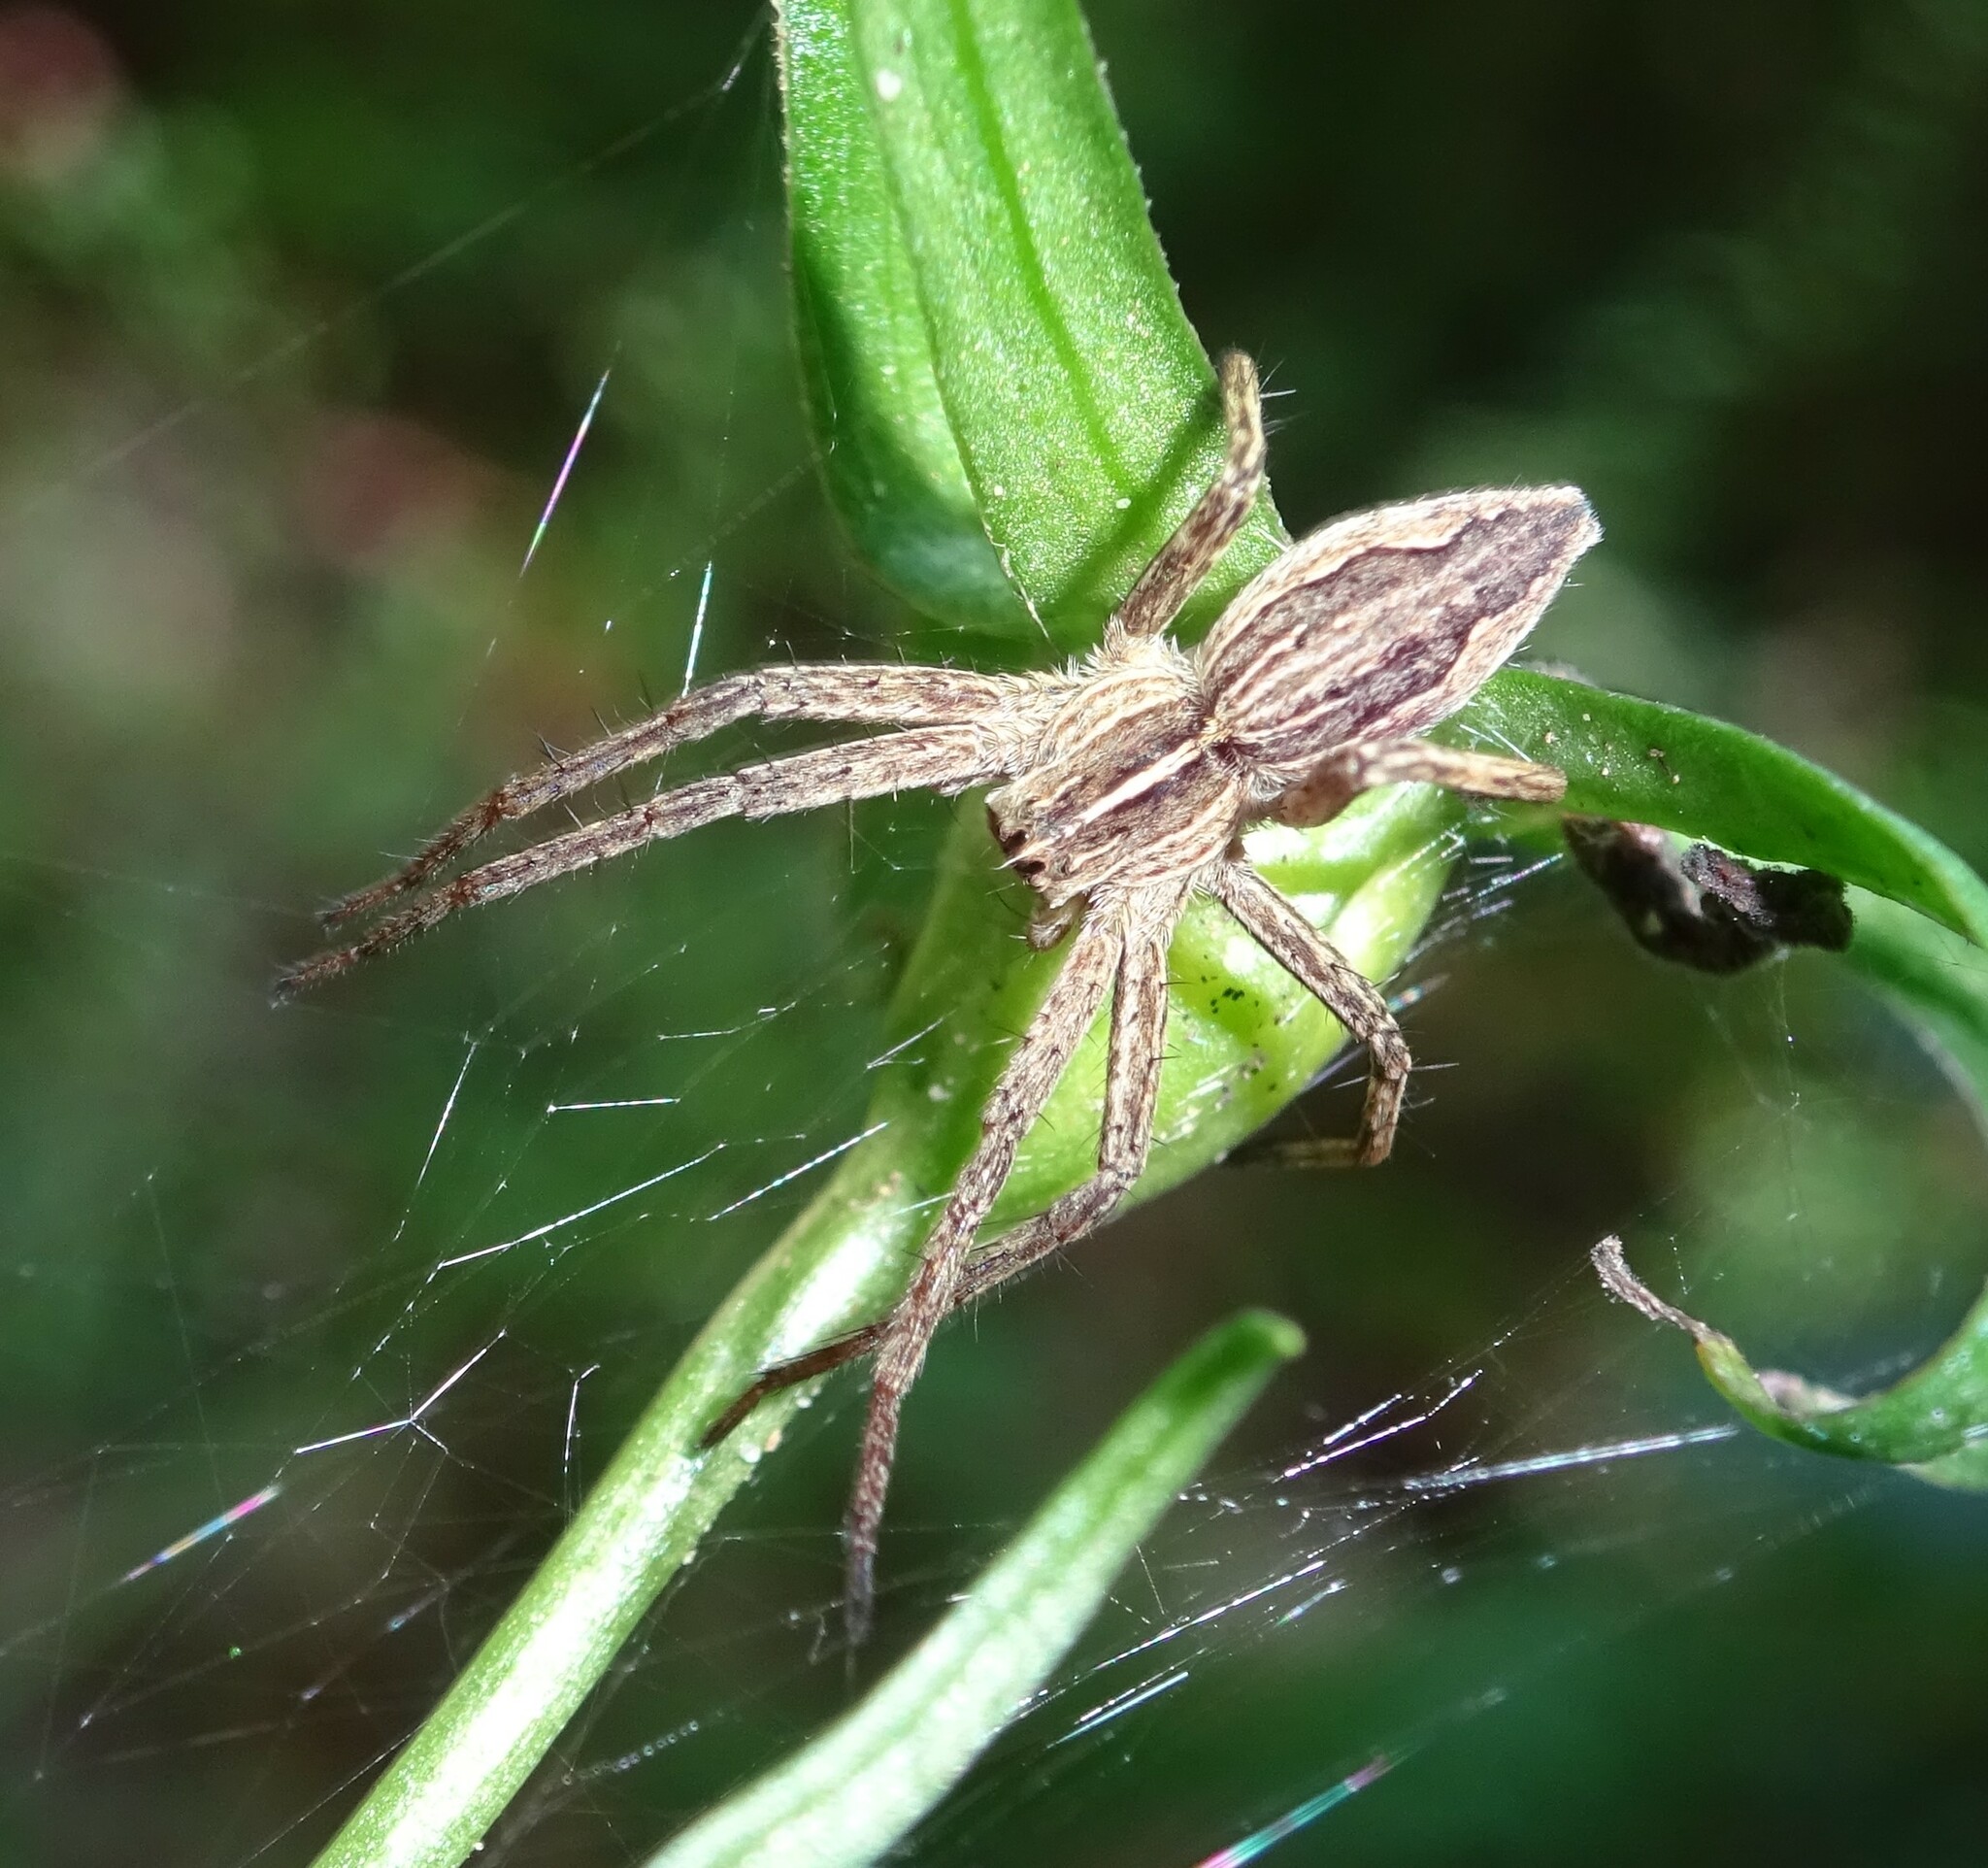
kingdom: Animalia
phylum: Arthropoda
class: Arachnida
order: Araneae
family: Pisauridae
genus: Pisaura
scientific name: Pisaura mirabilis
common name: Tent spider
